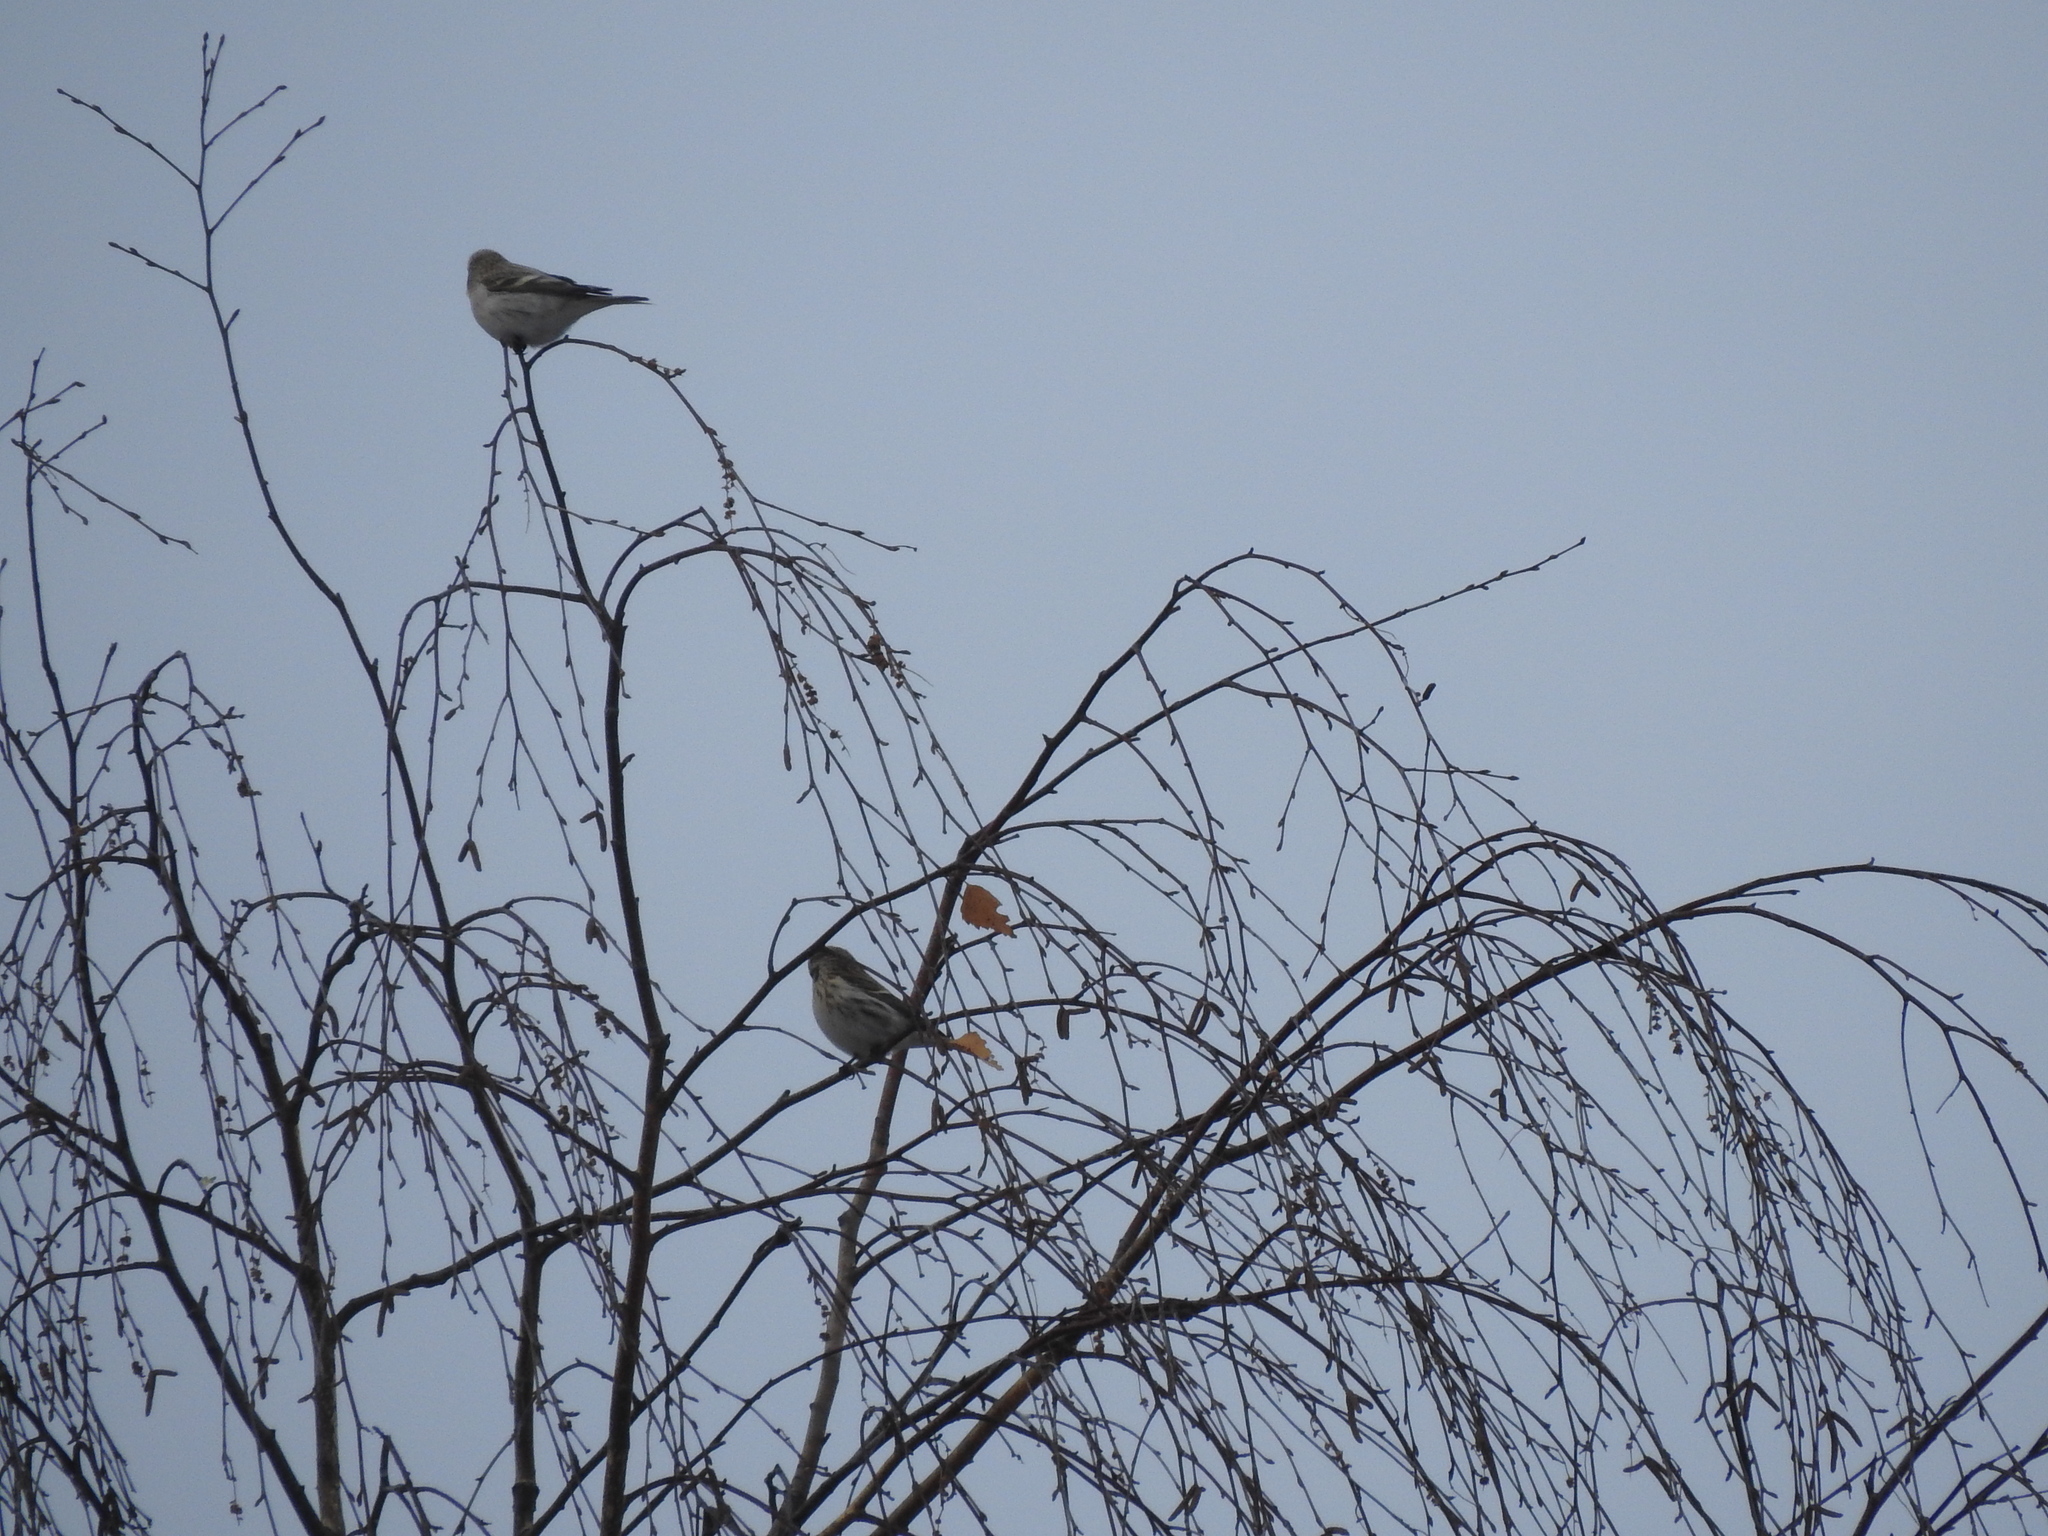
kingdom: Animalia
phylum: Chordata
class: Aves
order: Passeriformes
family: Fringillidae
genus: Acanthis
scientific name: Acanthis flammea
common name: Common redpoll
